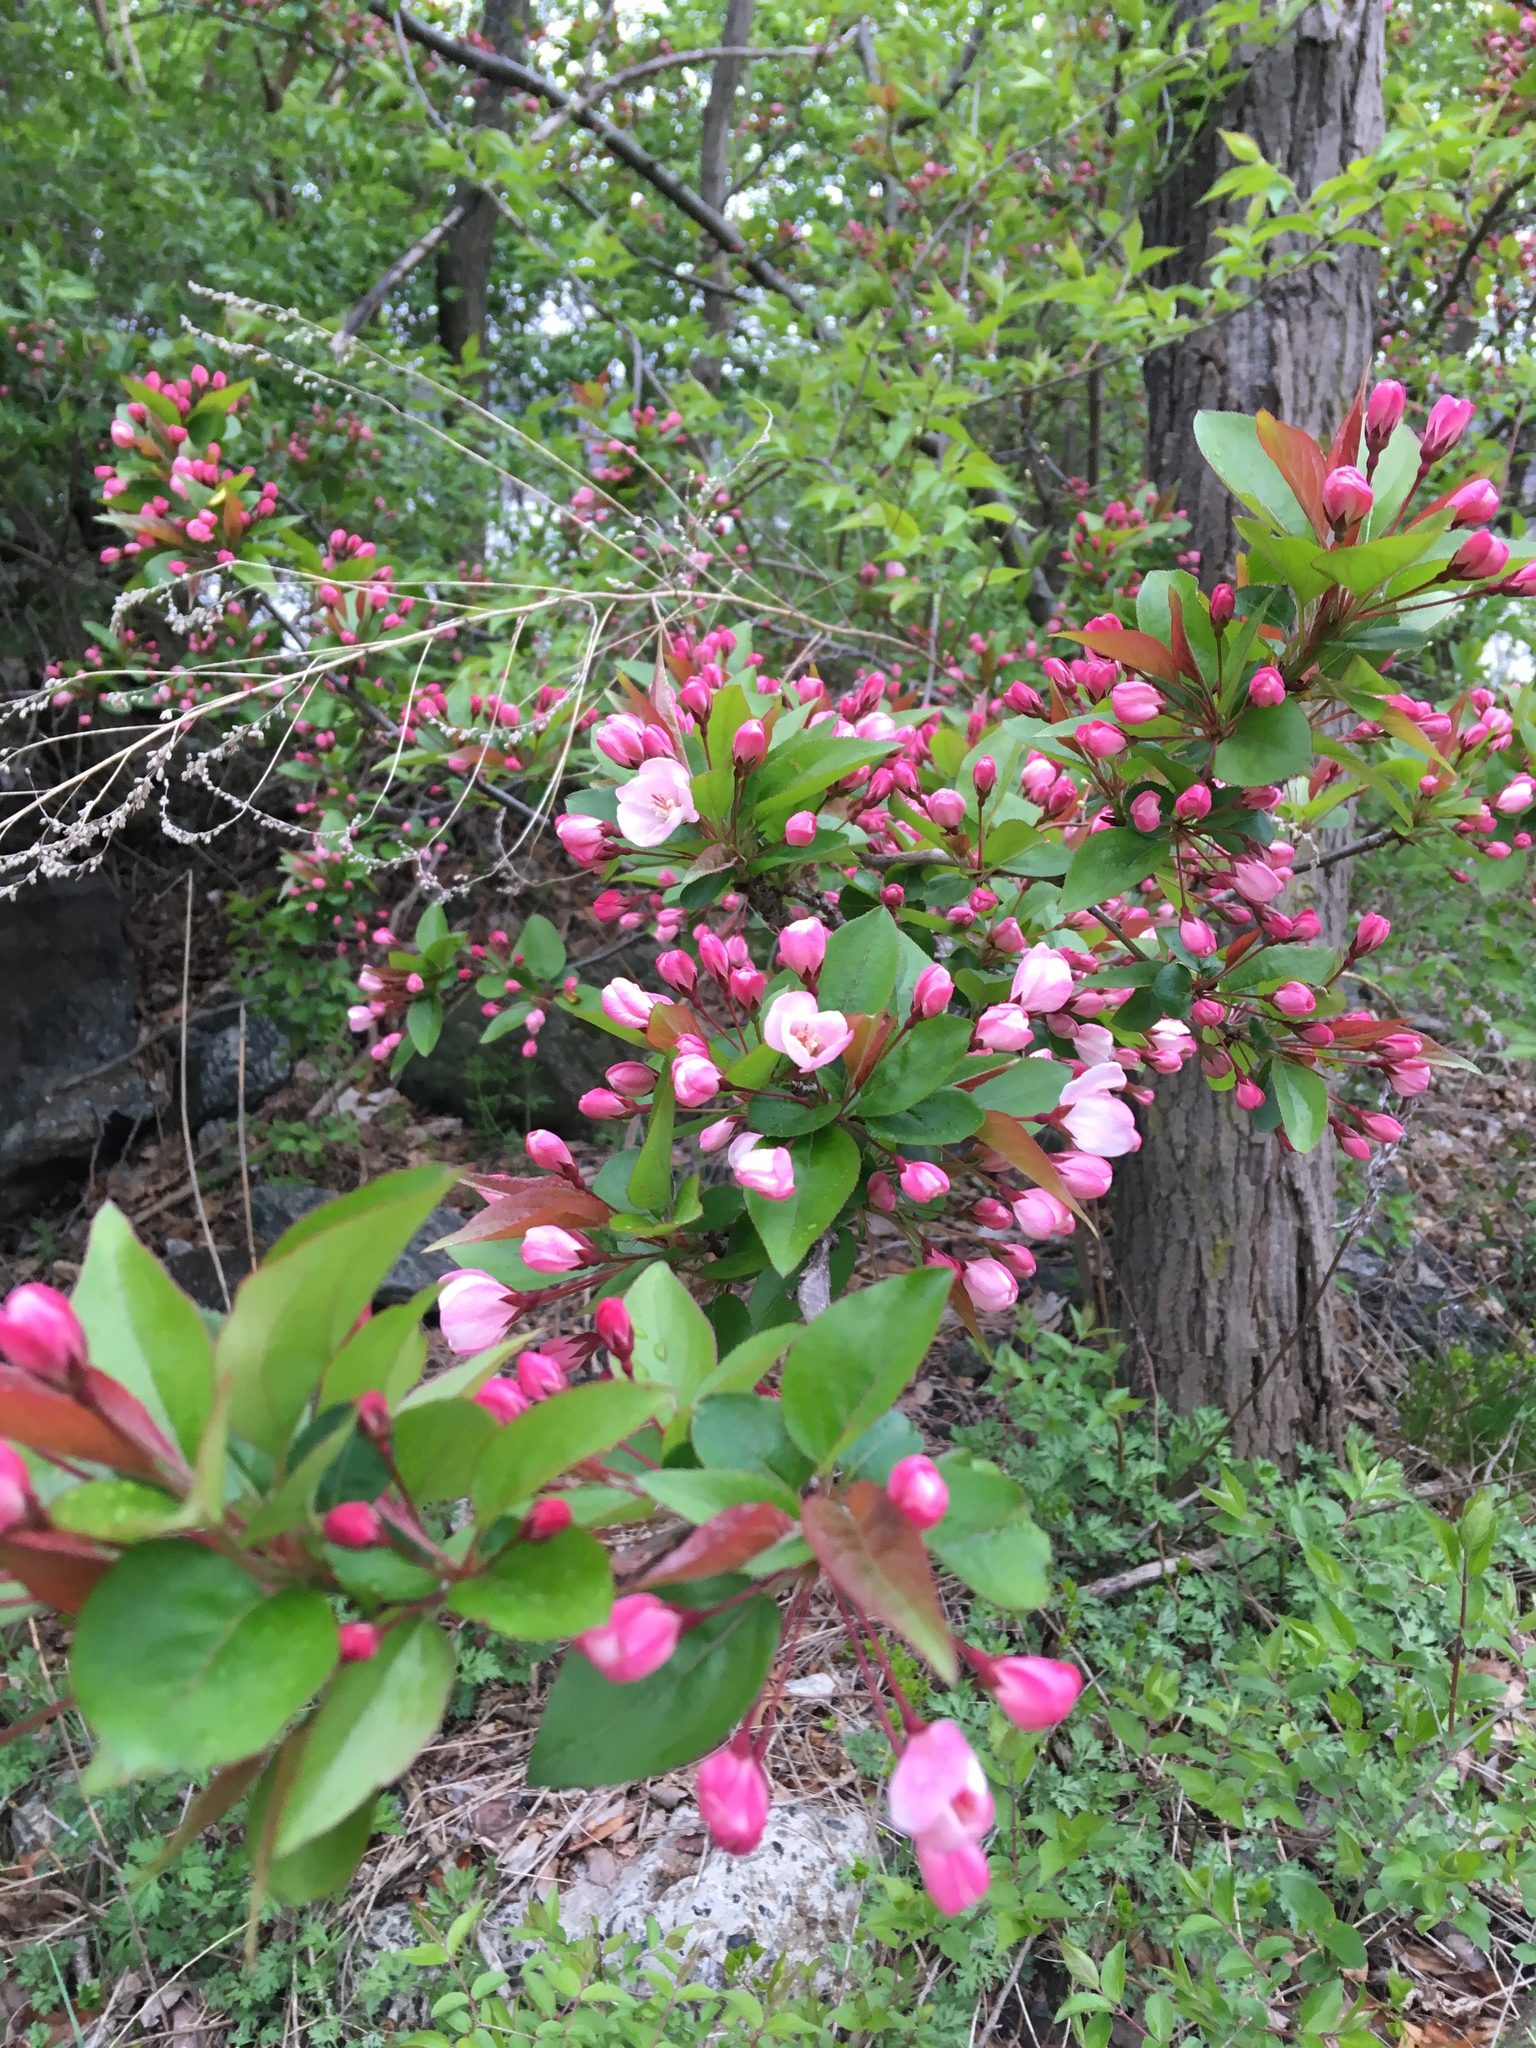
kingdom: Plantae
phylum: Tracheophyta
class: Magnoliopsida
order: Rosales
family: Rosaceae
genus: Malus
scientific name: Malus hupehensis
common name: Chinese crab apple
